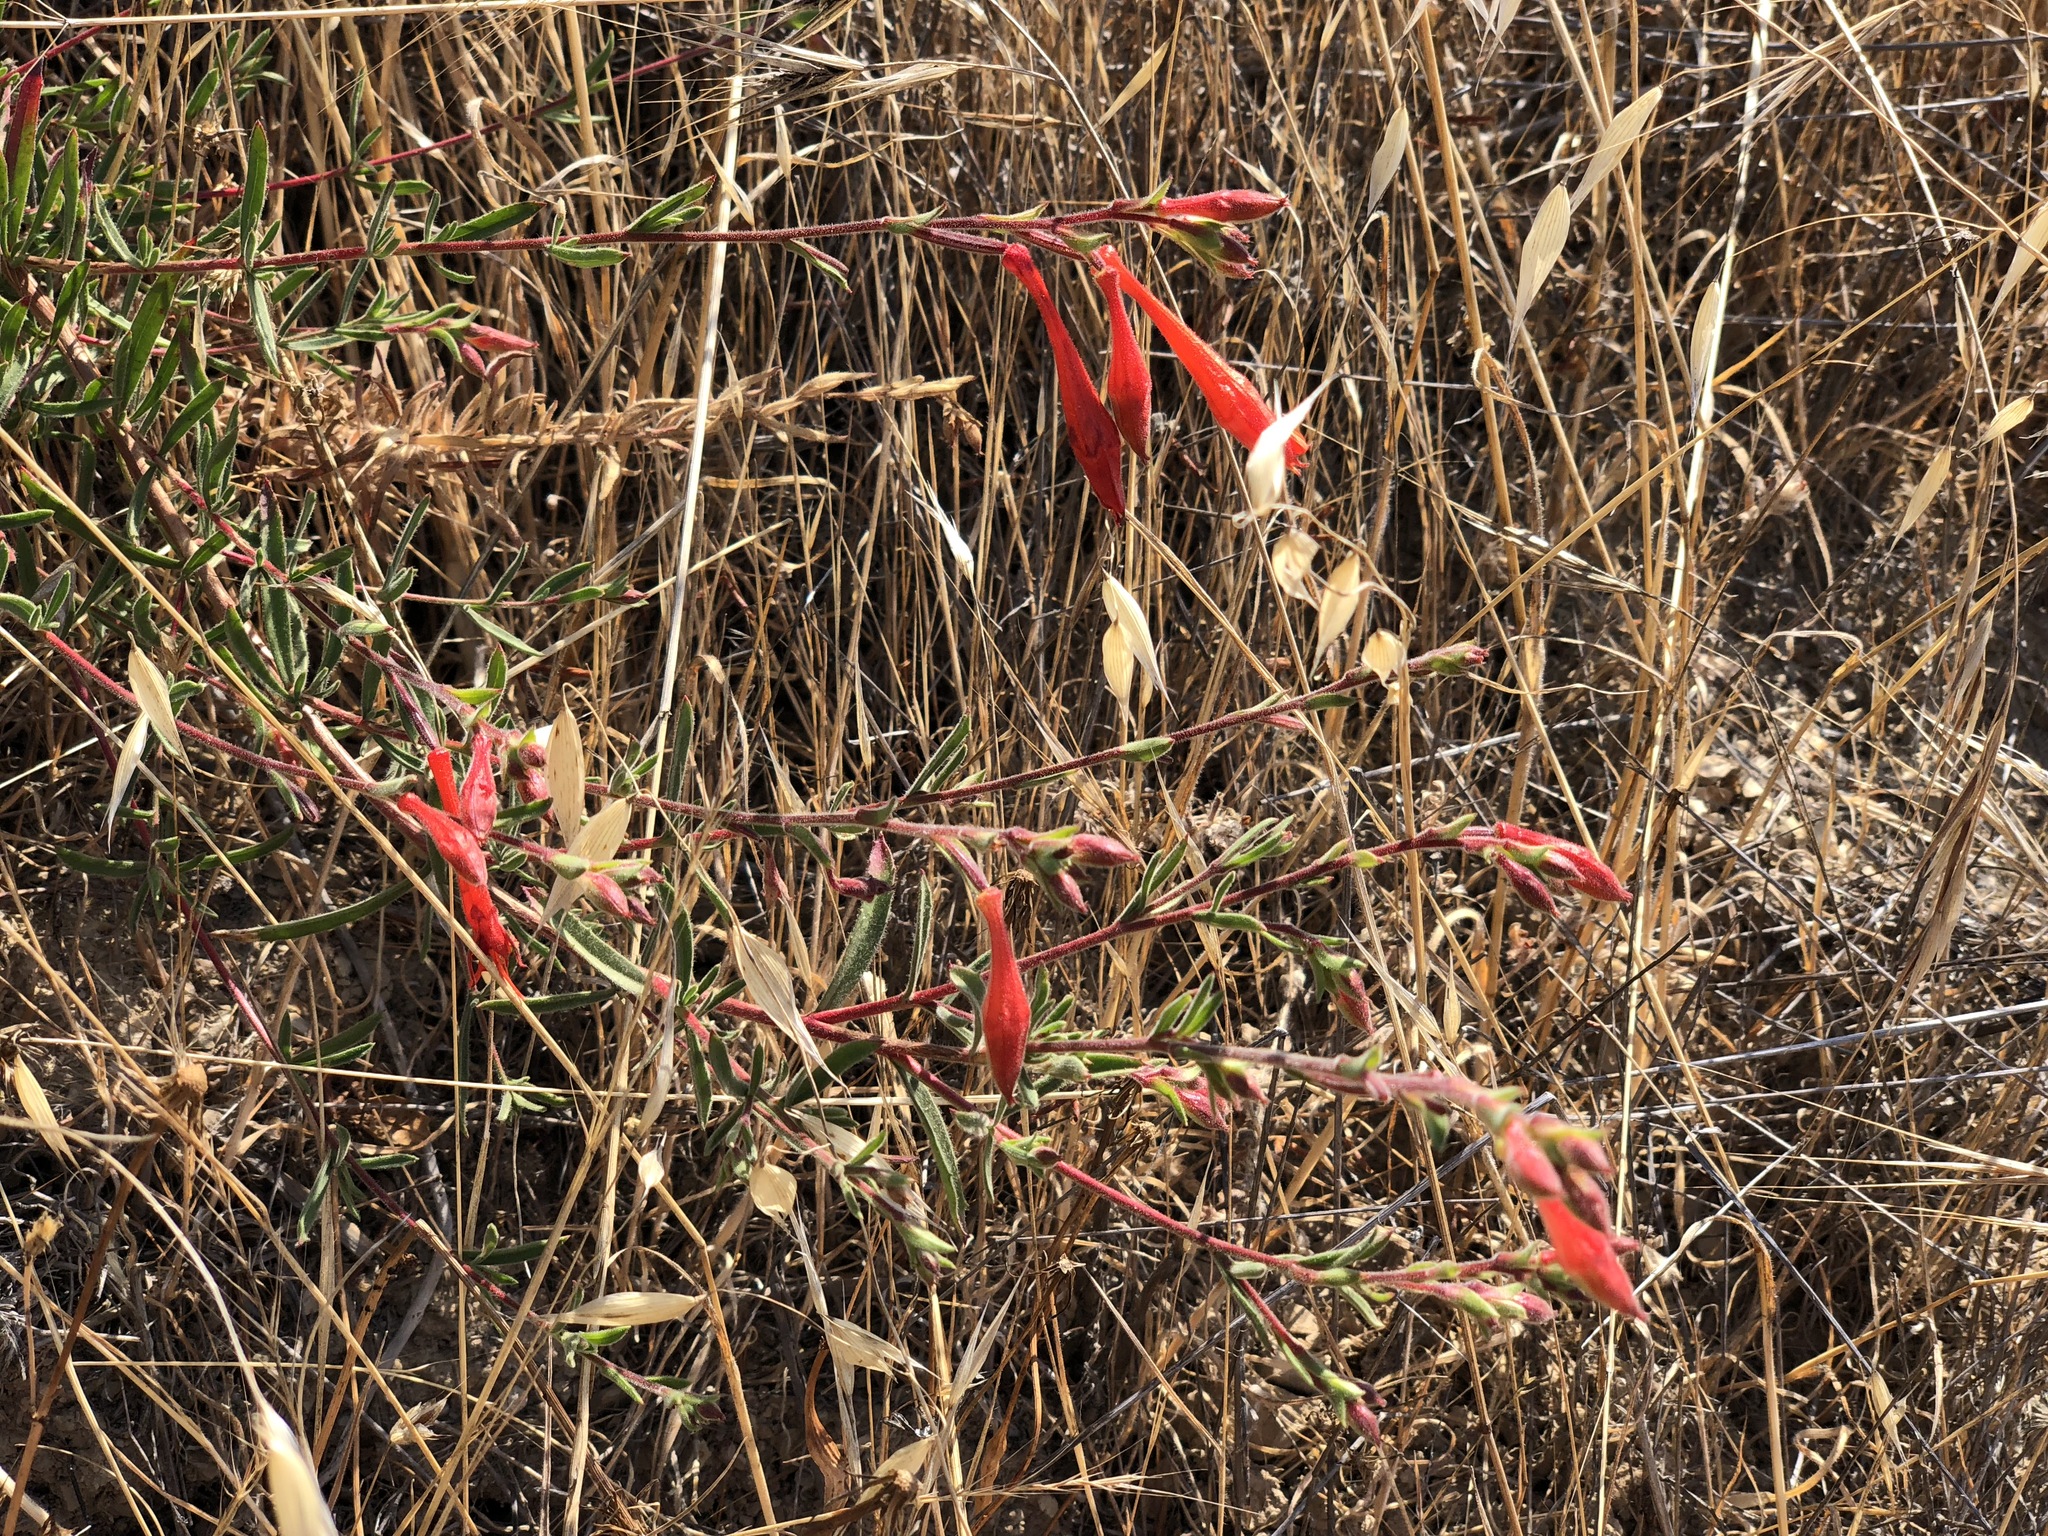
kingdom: Plantae
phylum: Tracheophyta
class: Magnoliopsida
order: Myrtales
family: Onagraceae
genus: Epilobium
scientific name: Epilobium canum
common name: California-fuchsia
